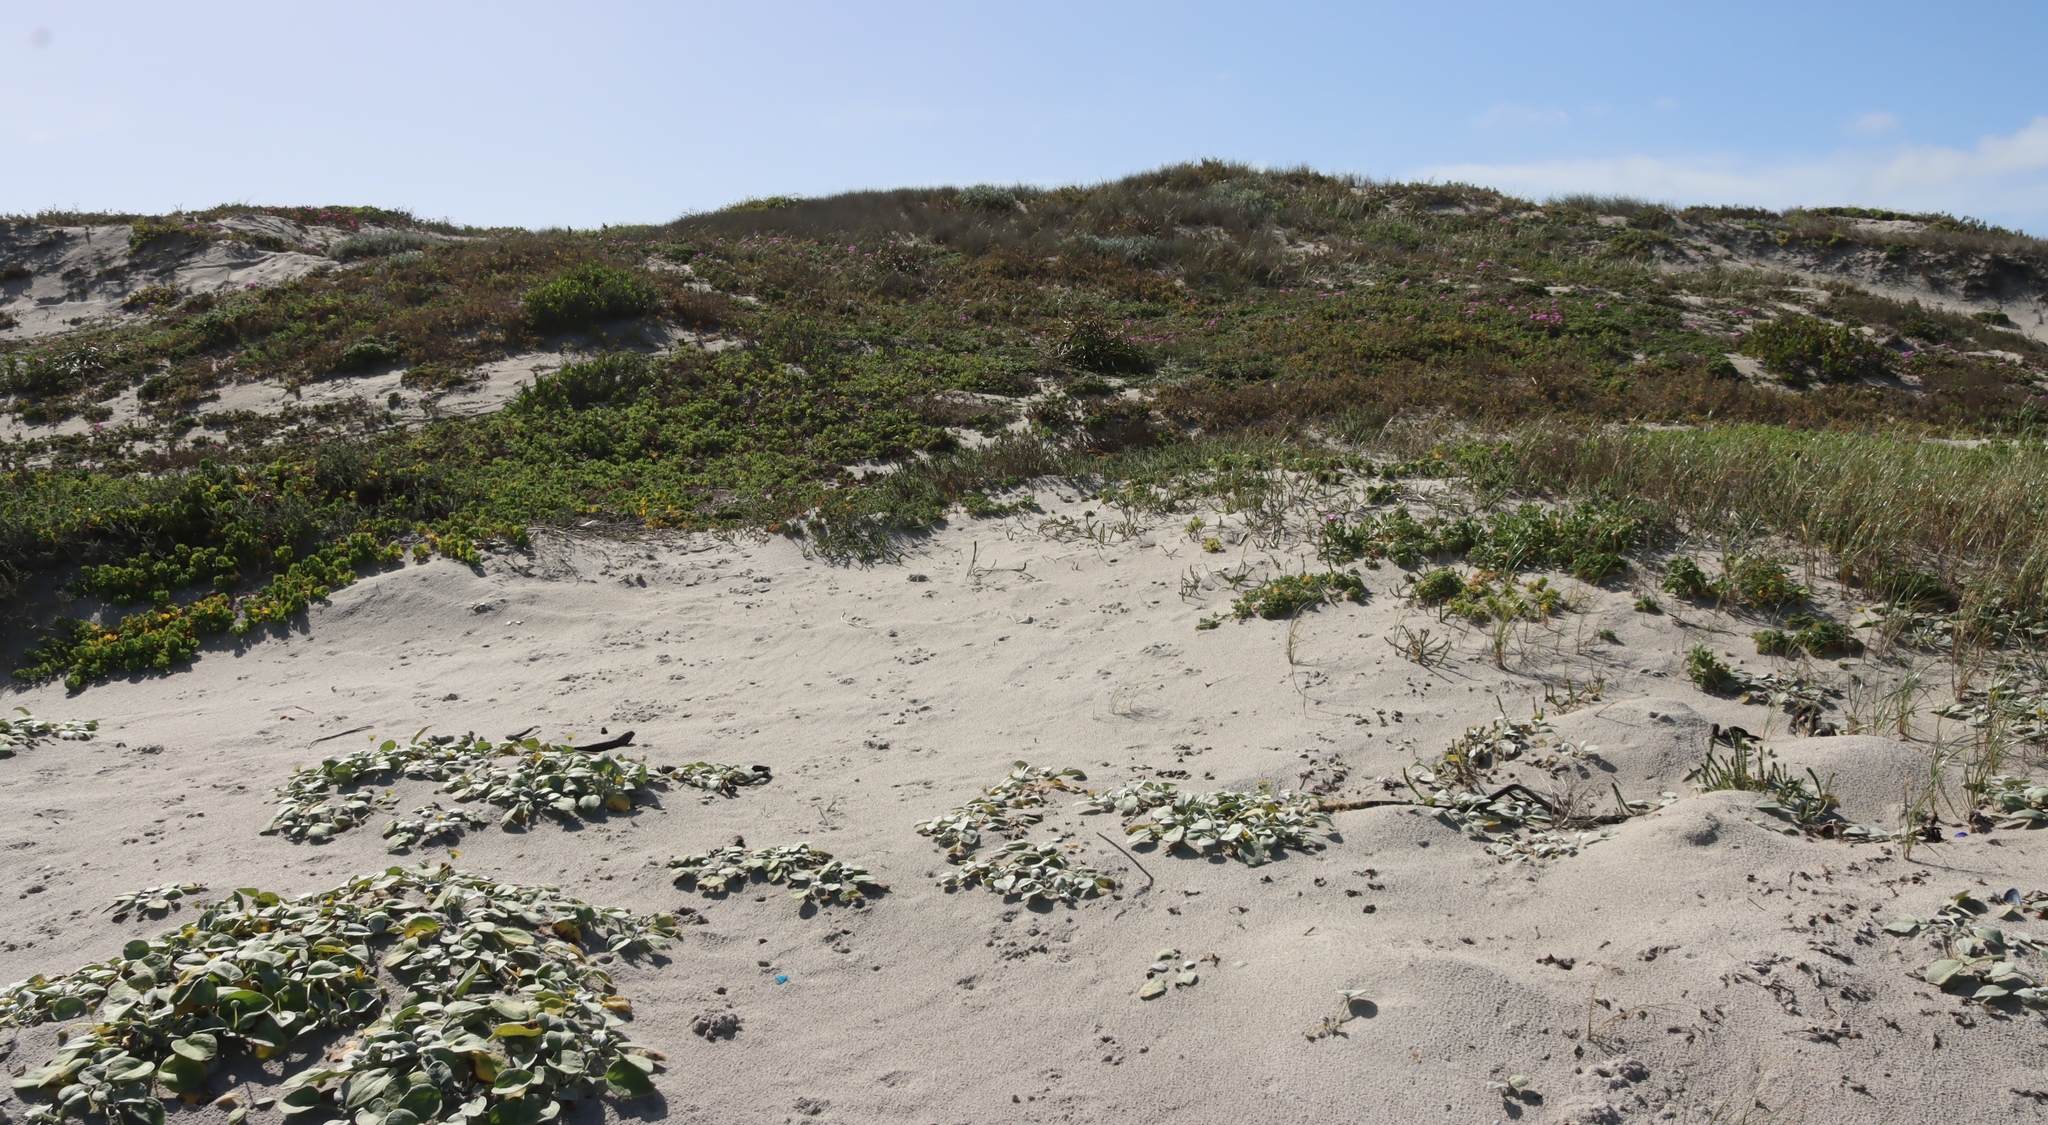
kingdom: Plantae
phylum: Tracheophyta
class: Magnoliopsida
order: Asterales
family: Asteraceae
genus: Arctotheca
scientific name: Arctotheca populifolia
